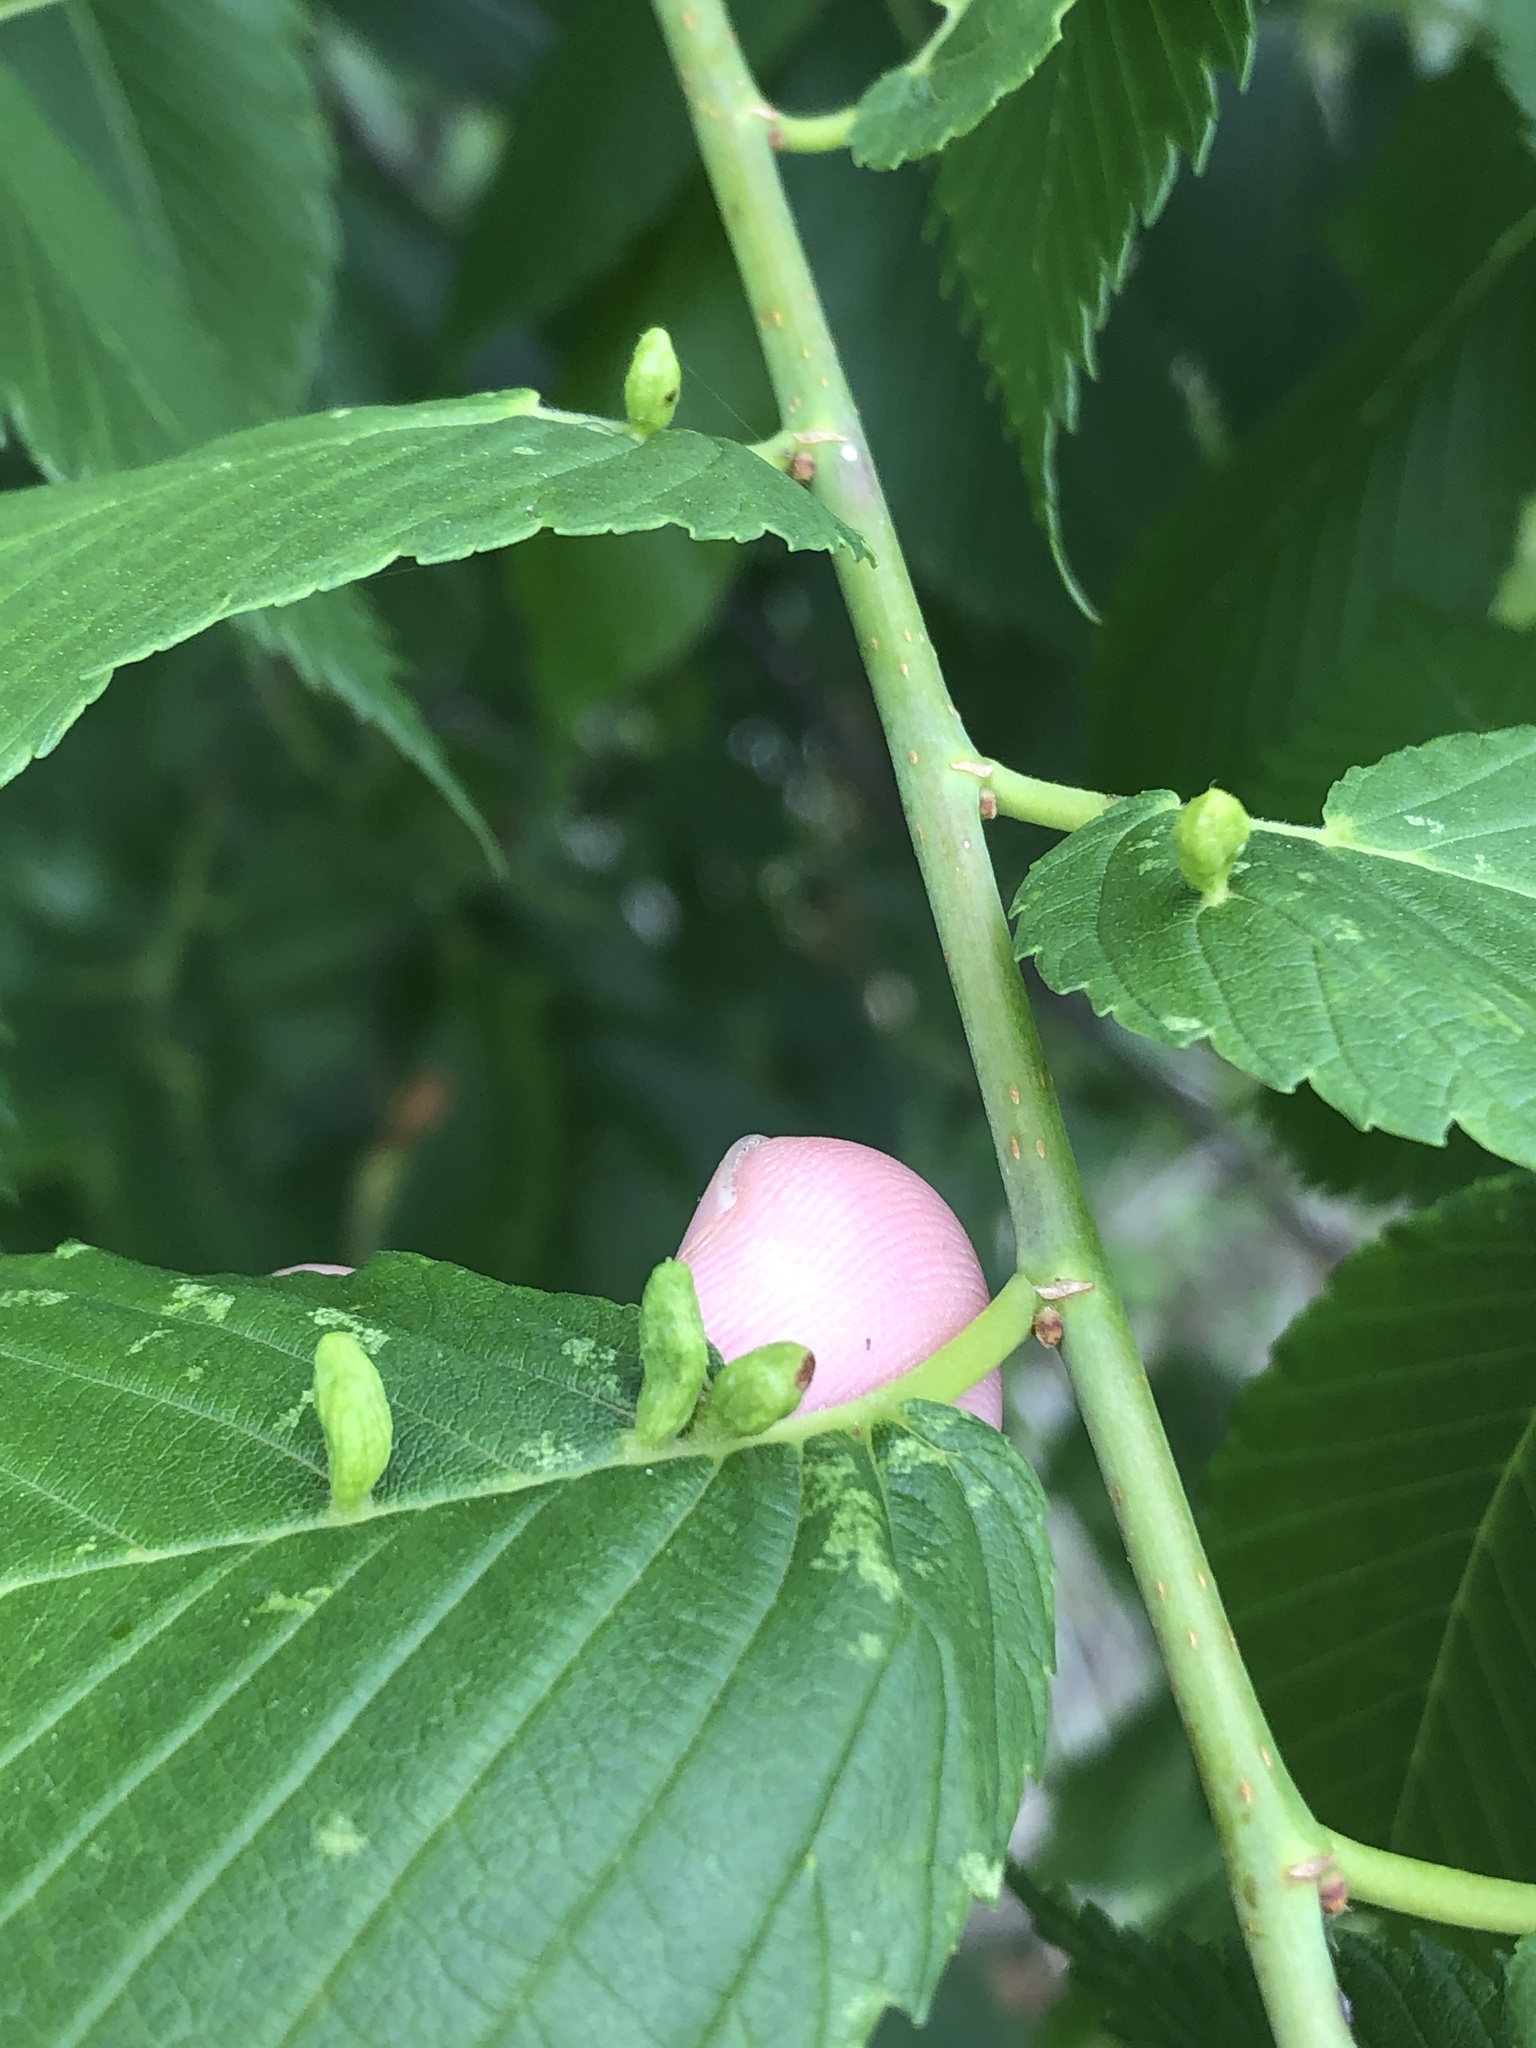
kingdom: Animalia
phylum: Arthropoda
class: Arachnida
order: Trombidiformes
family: Eriophyidae
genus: Aceria
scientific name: Aceria
